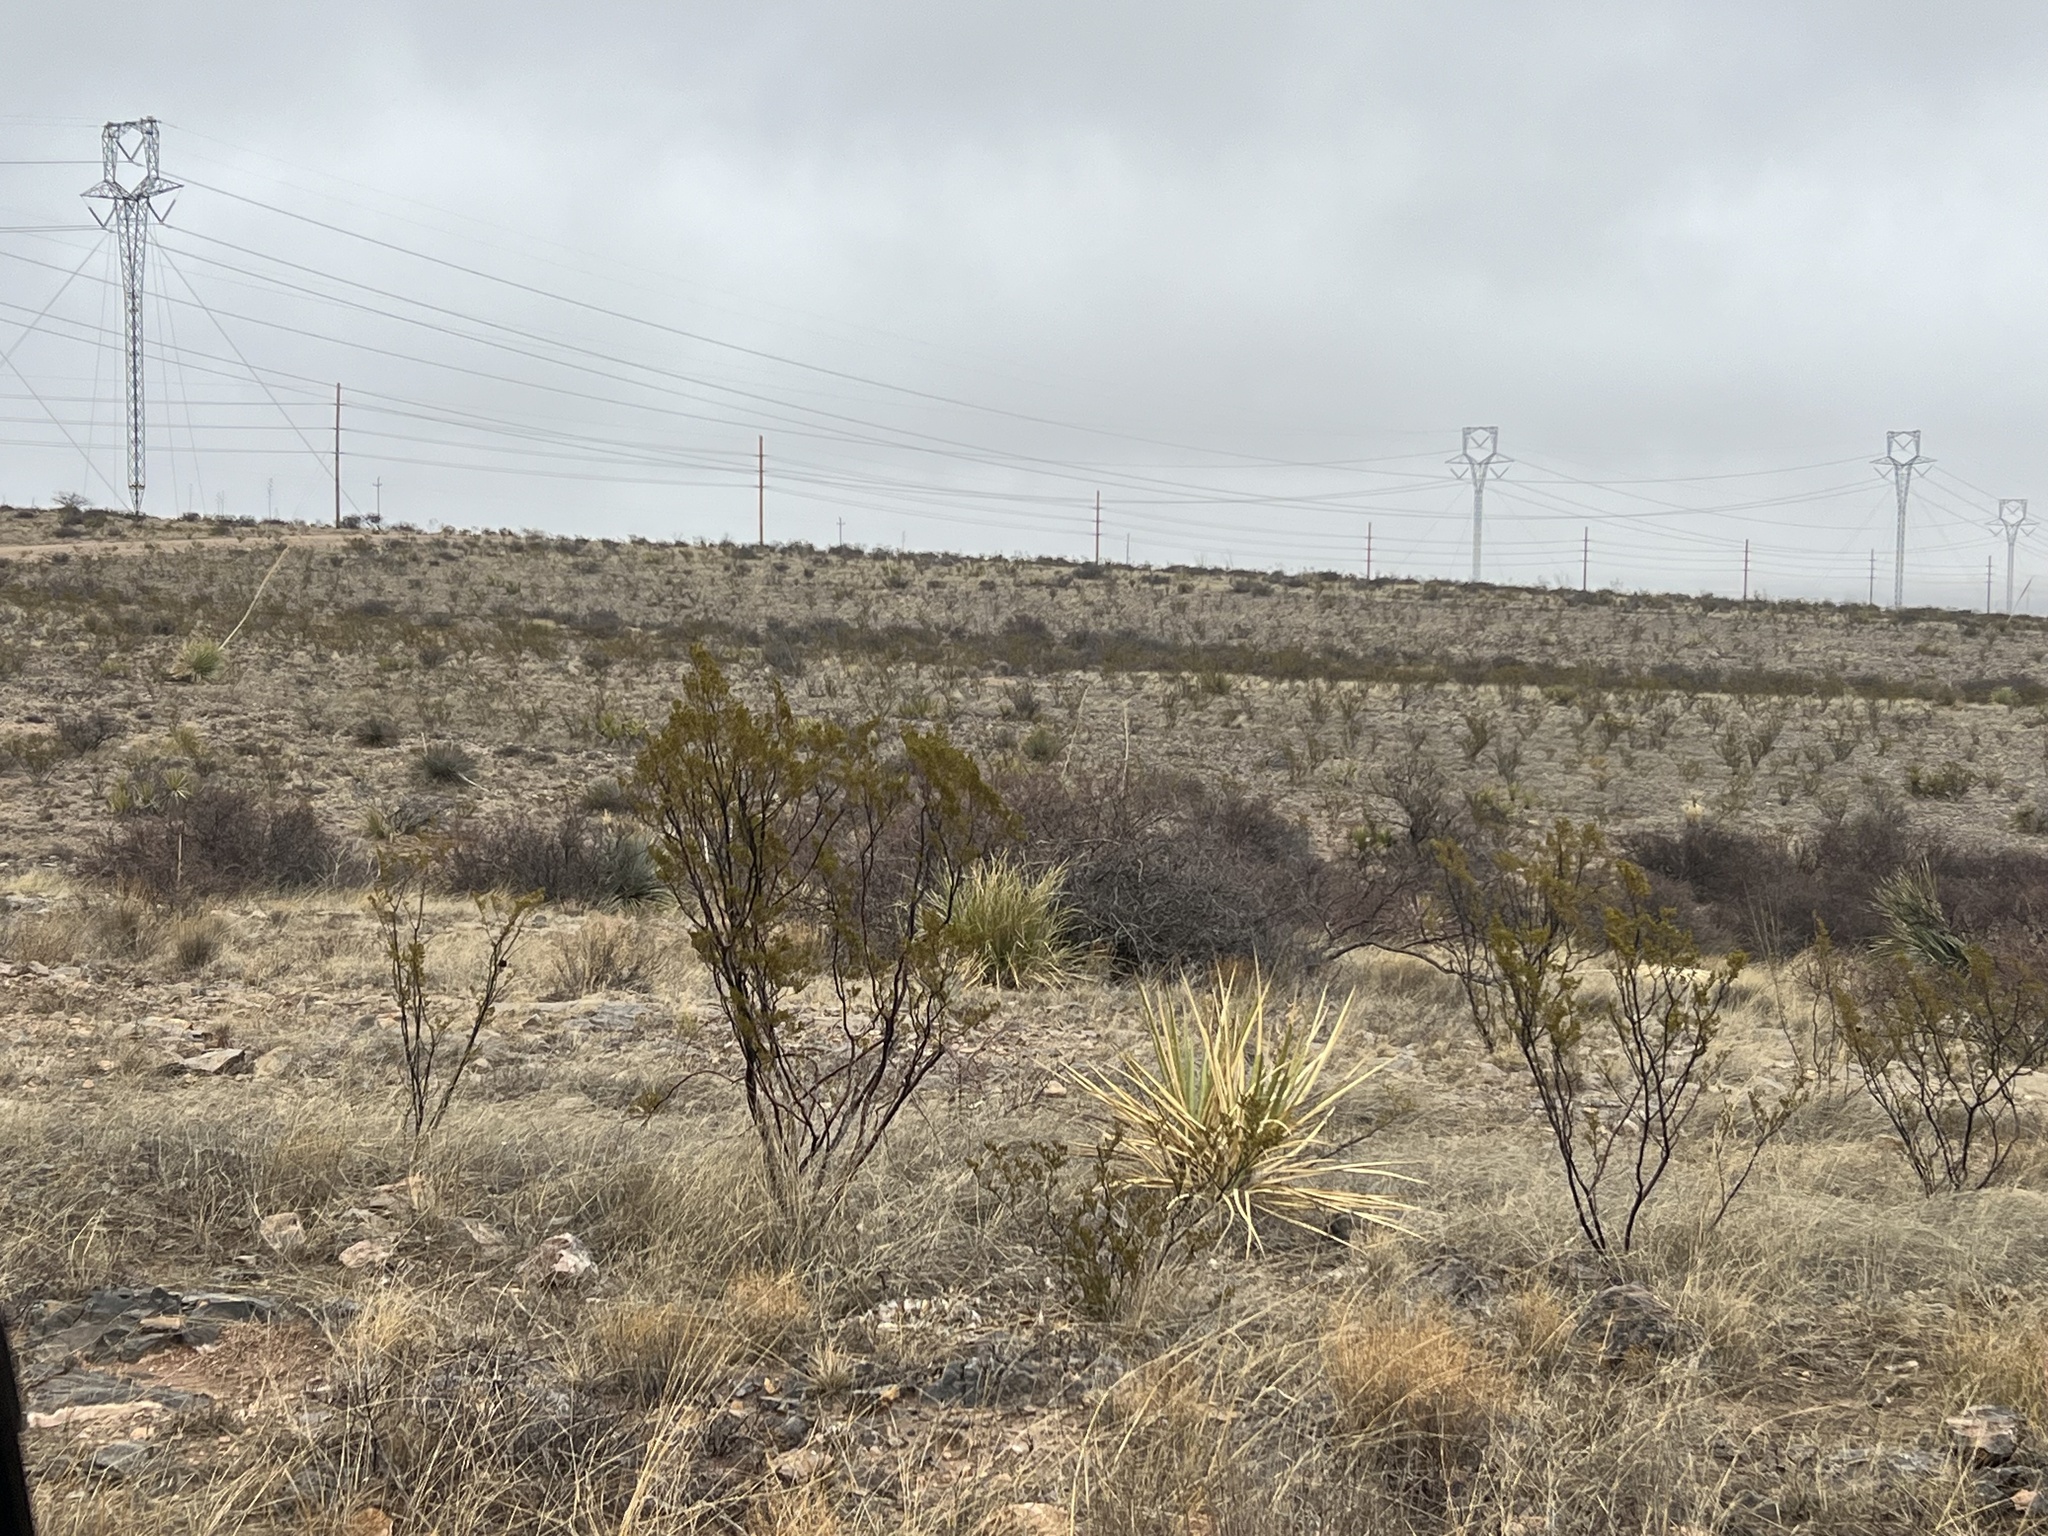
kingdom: Plantae
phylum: Tracheophyta
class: Magnoliopsida
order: Zygophyllales
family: Zygophyllaceae
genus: Larrea
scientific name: Larrea tridentata
